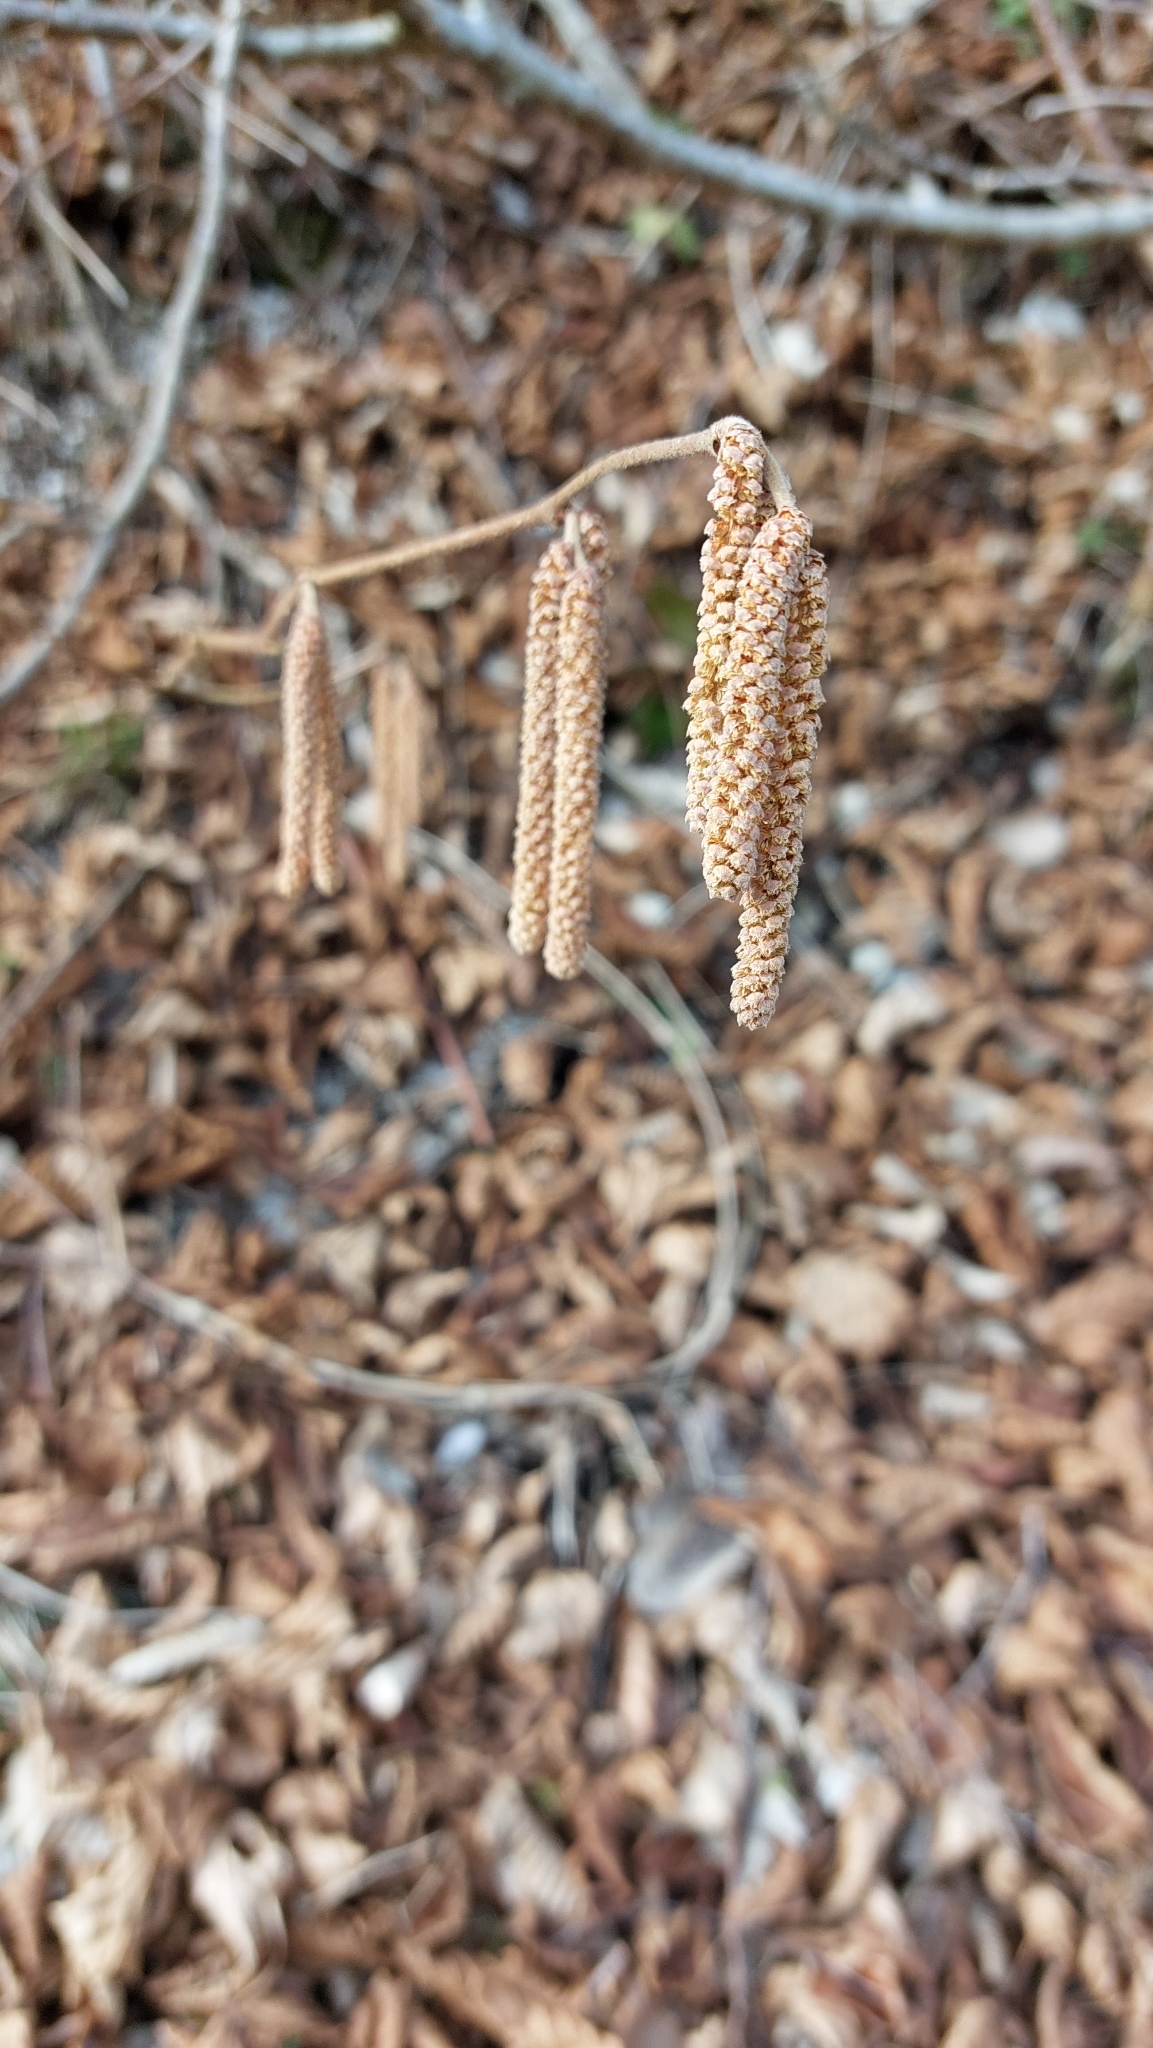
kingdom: Plantae
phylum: Tracheophyta
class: Magnoliopsida
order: Fagales
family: Betulaceae
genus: Corylus
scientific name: Corylus avellana
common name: European hazel
